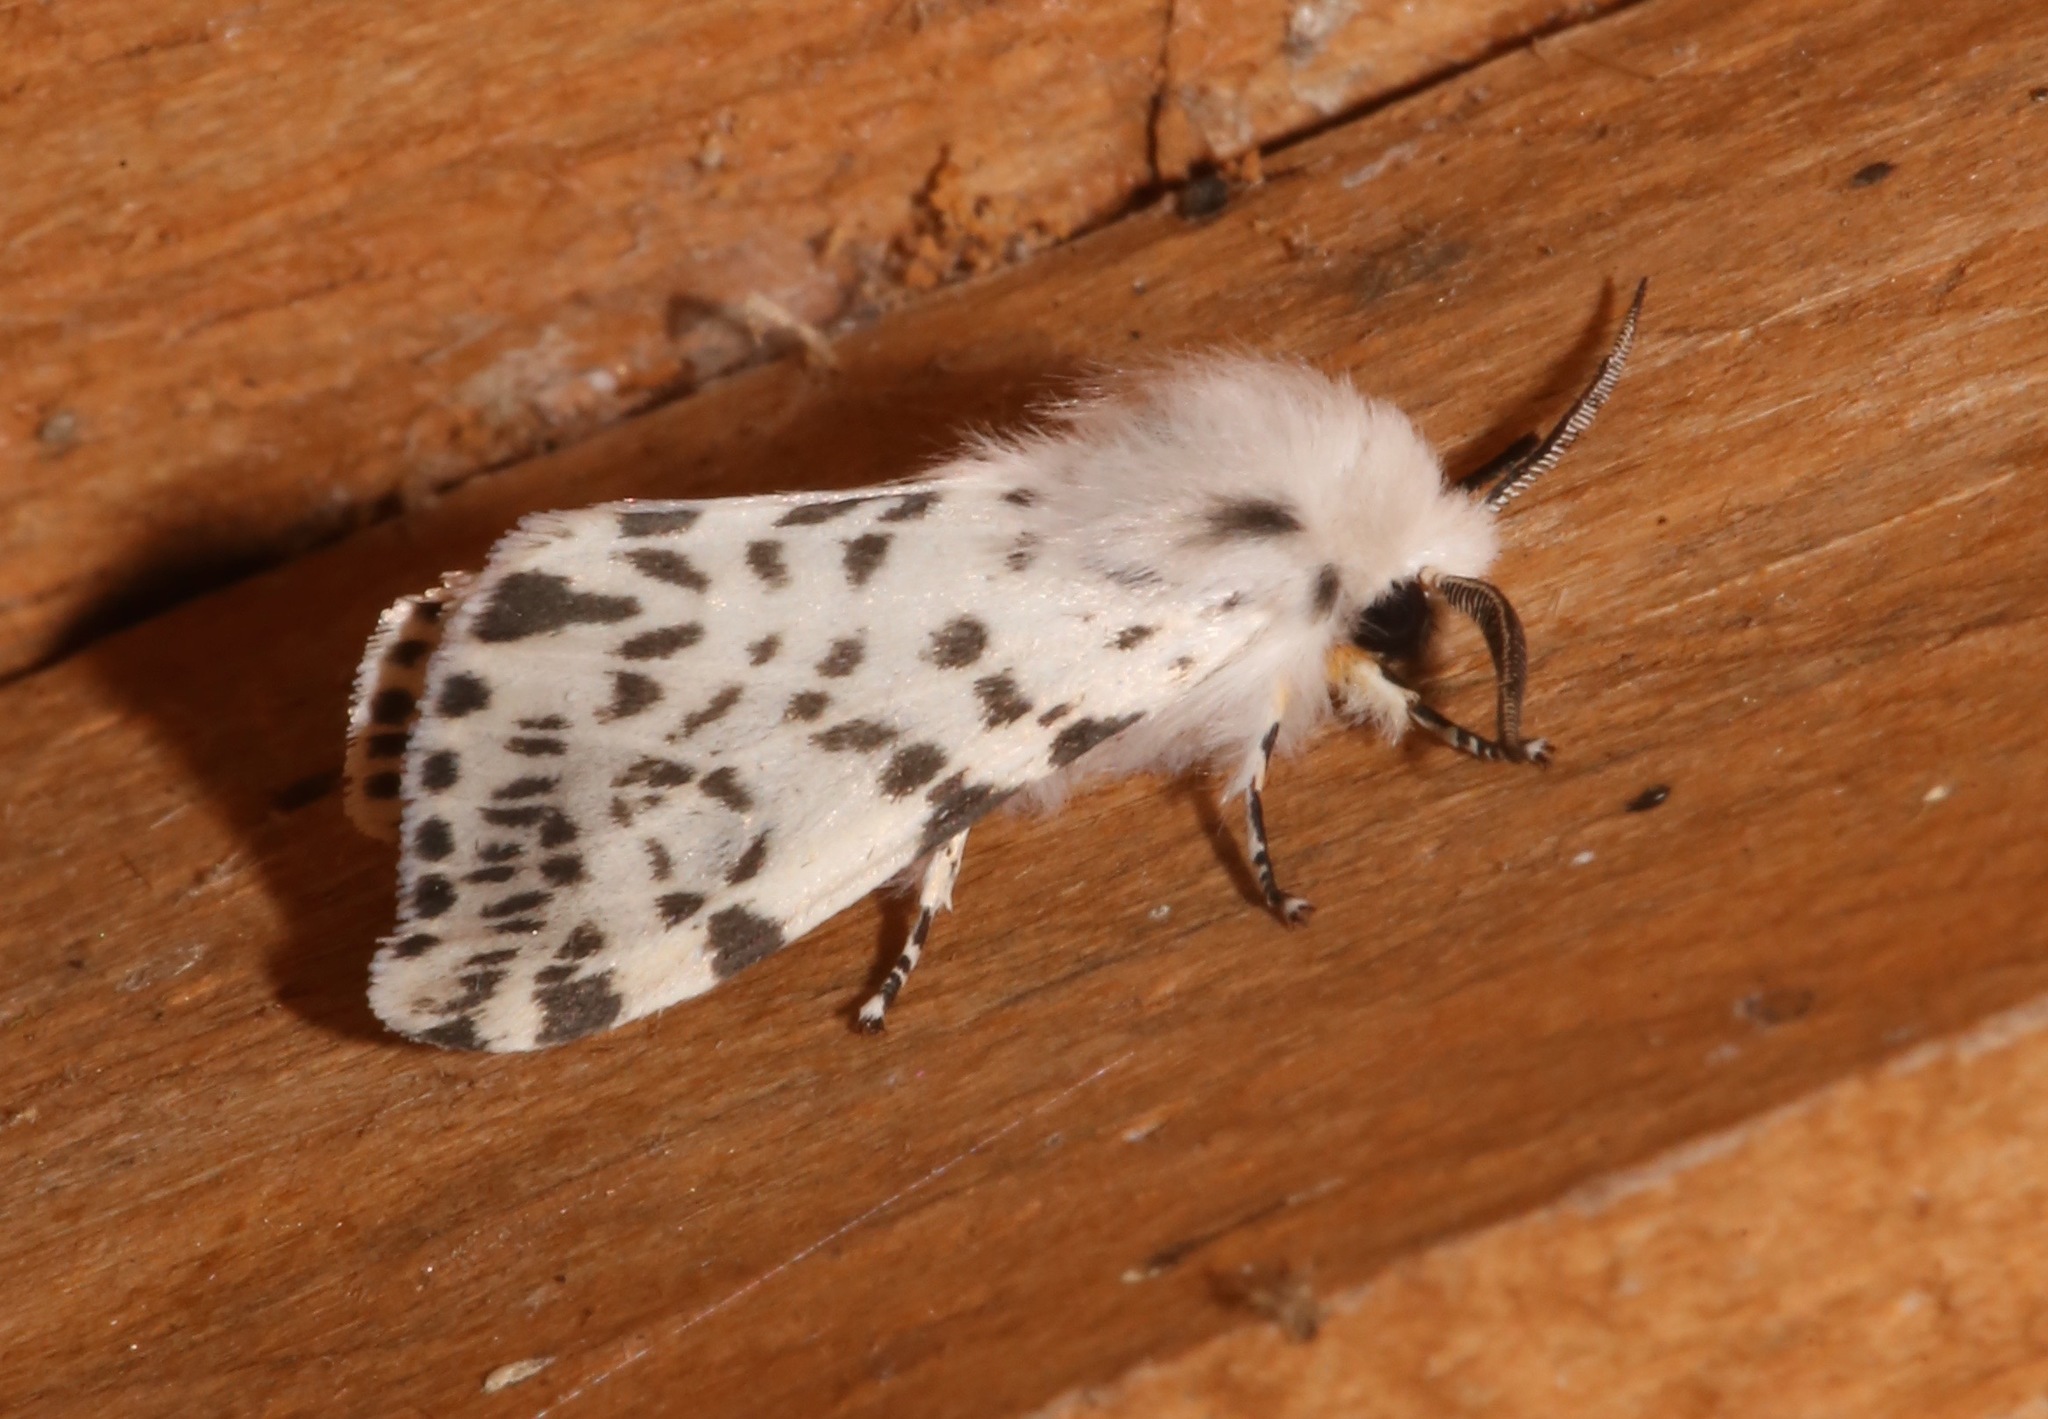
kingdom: Animalia
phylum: Arthropoda
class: Insecta
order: Lepidoptera
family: Erebidae
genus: Hyphantria
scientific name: Hyphantria cunea
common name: American white moth
